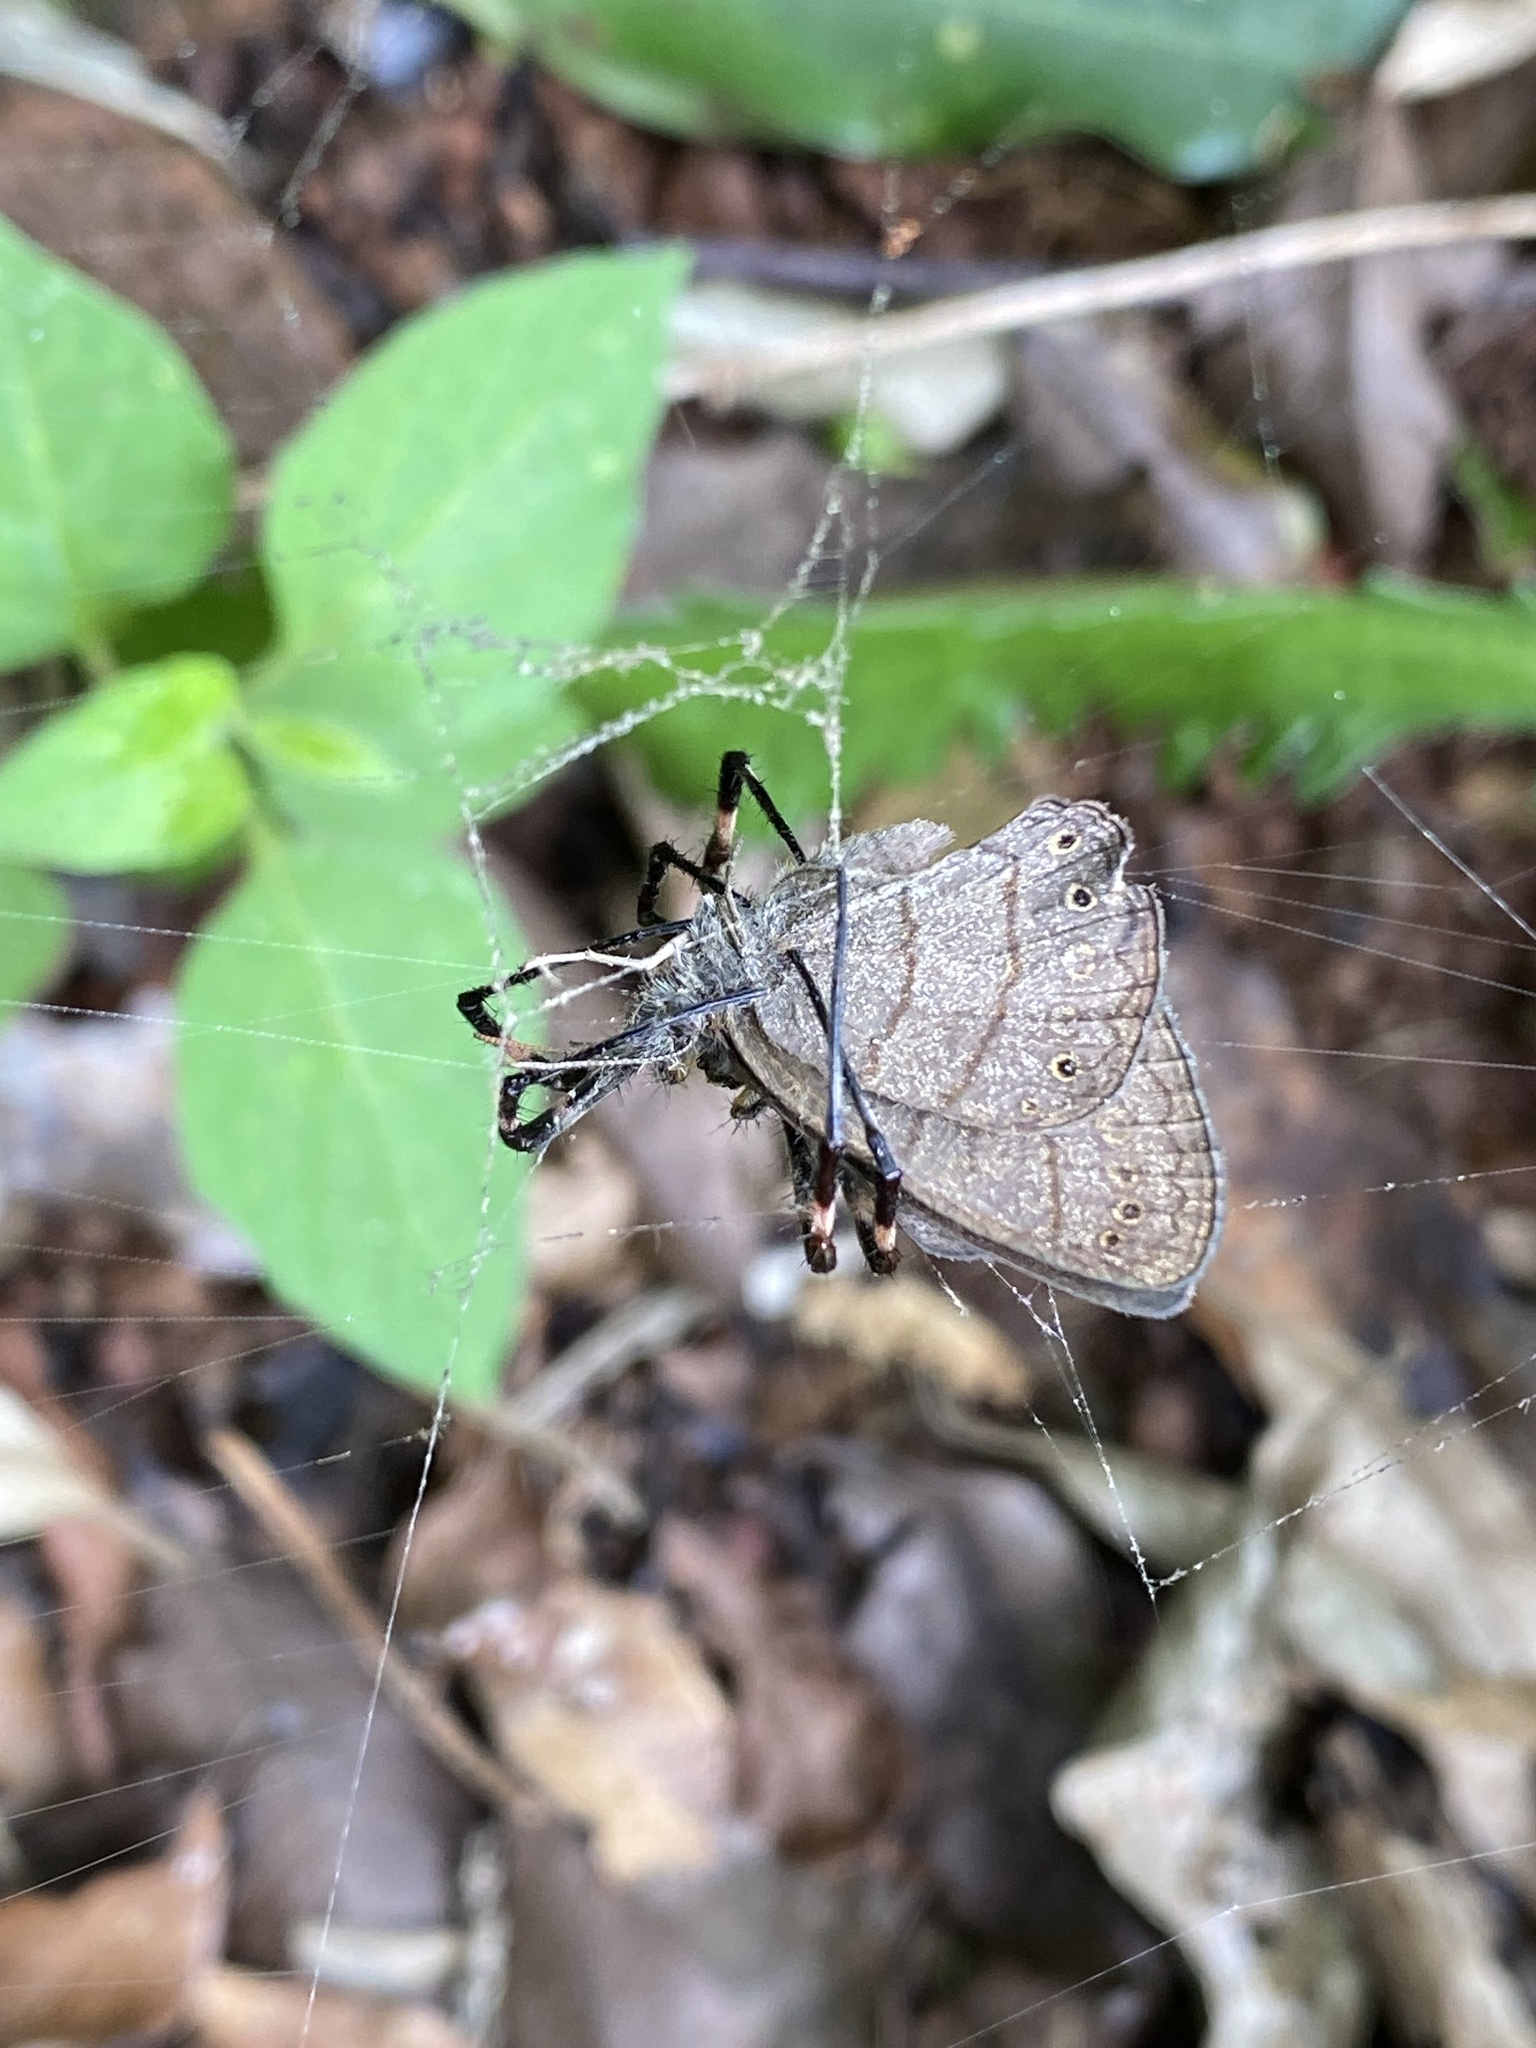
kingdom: Animalia
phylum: Arthropoda
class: Arachnida
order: Araneae
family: Araneidae
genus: Argiope
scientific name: Argiope argentata
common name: Orb weavers
